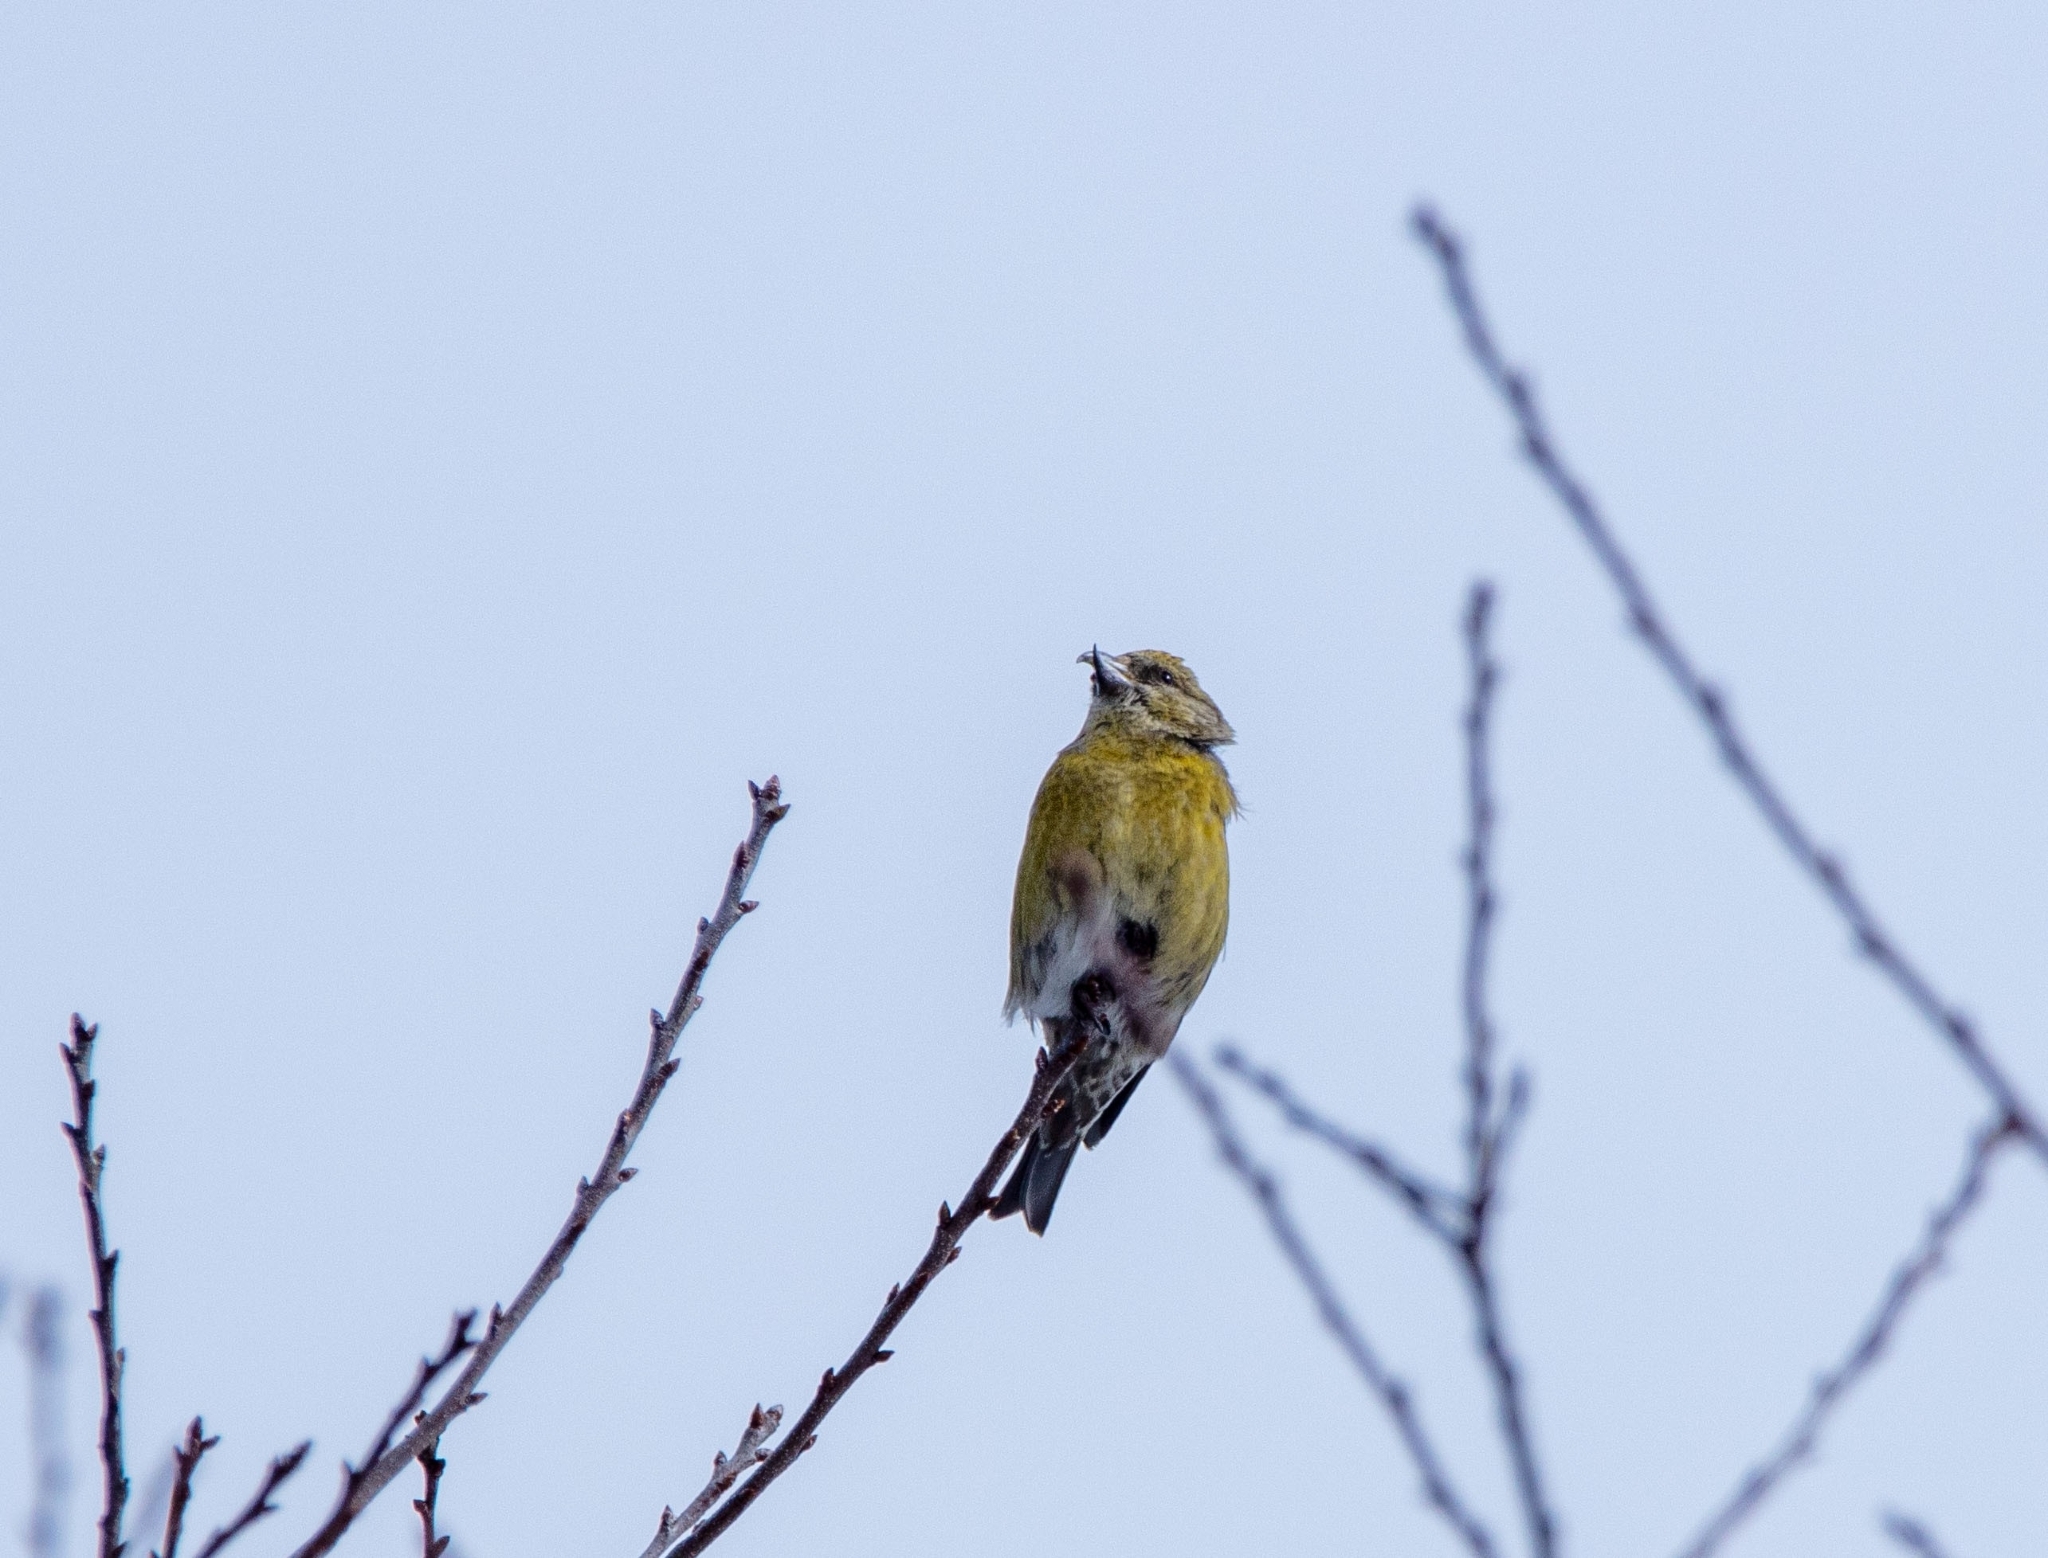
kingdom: Animalia
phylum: Chordata
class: Aves
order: Passeriformes
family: Fringillidae
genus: Loxia
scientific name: Loxia curvirostra
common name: Red crossbill
